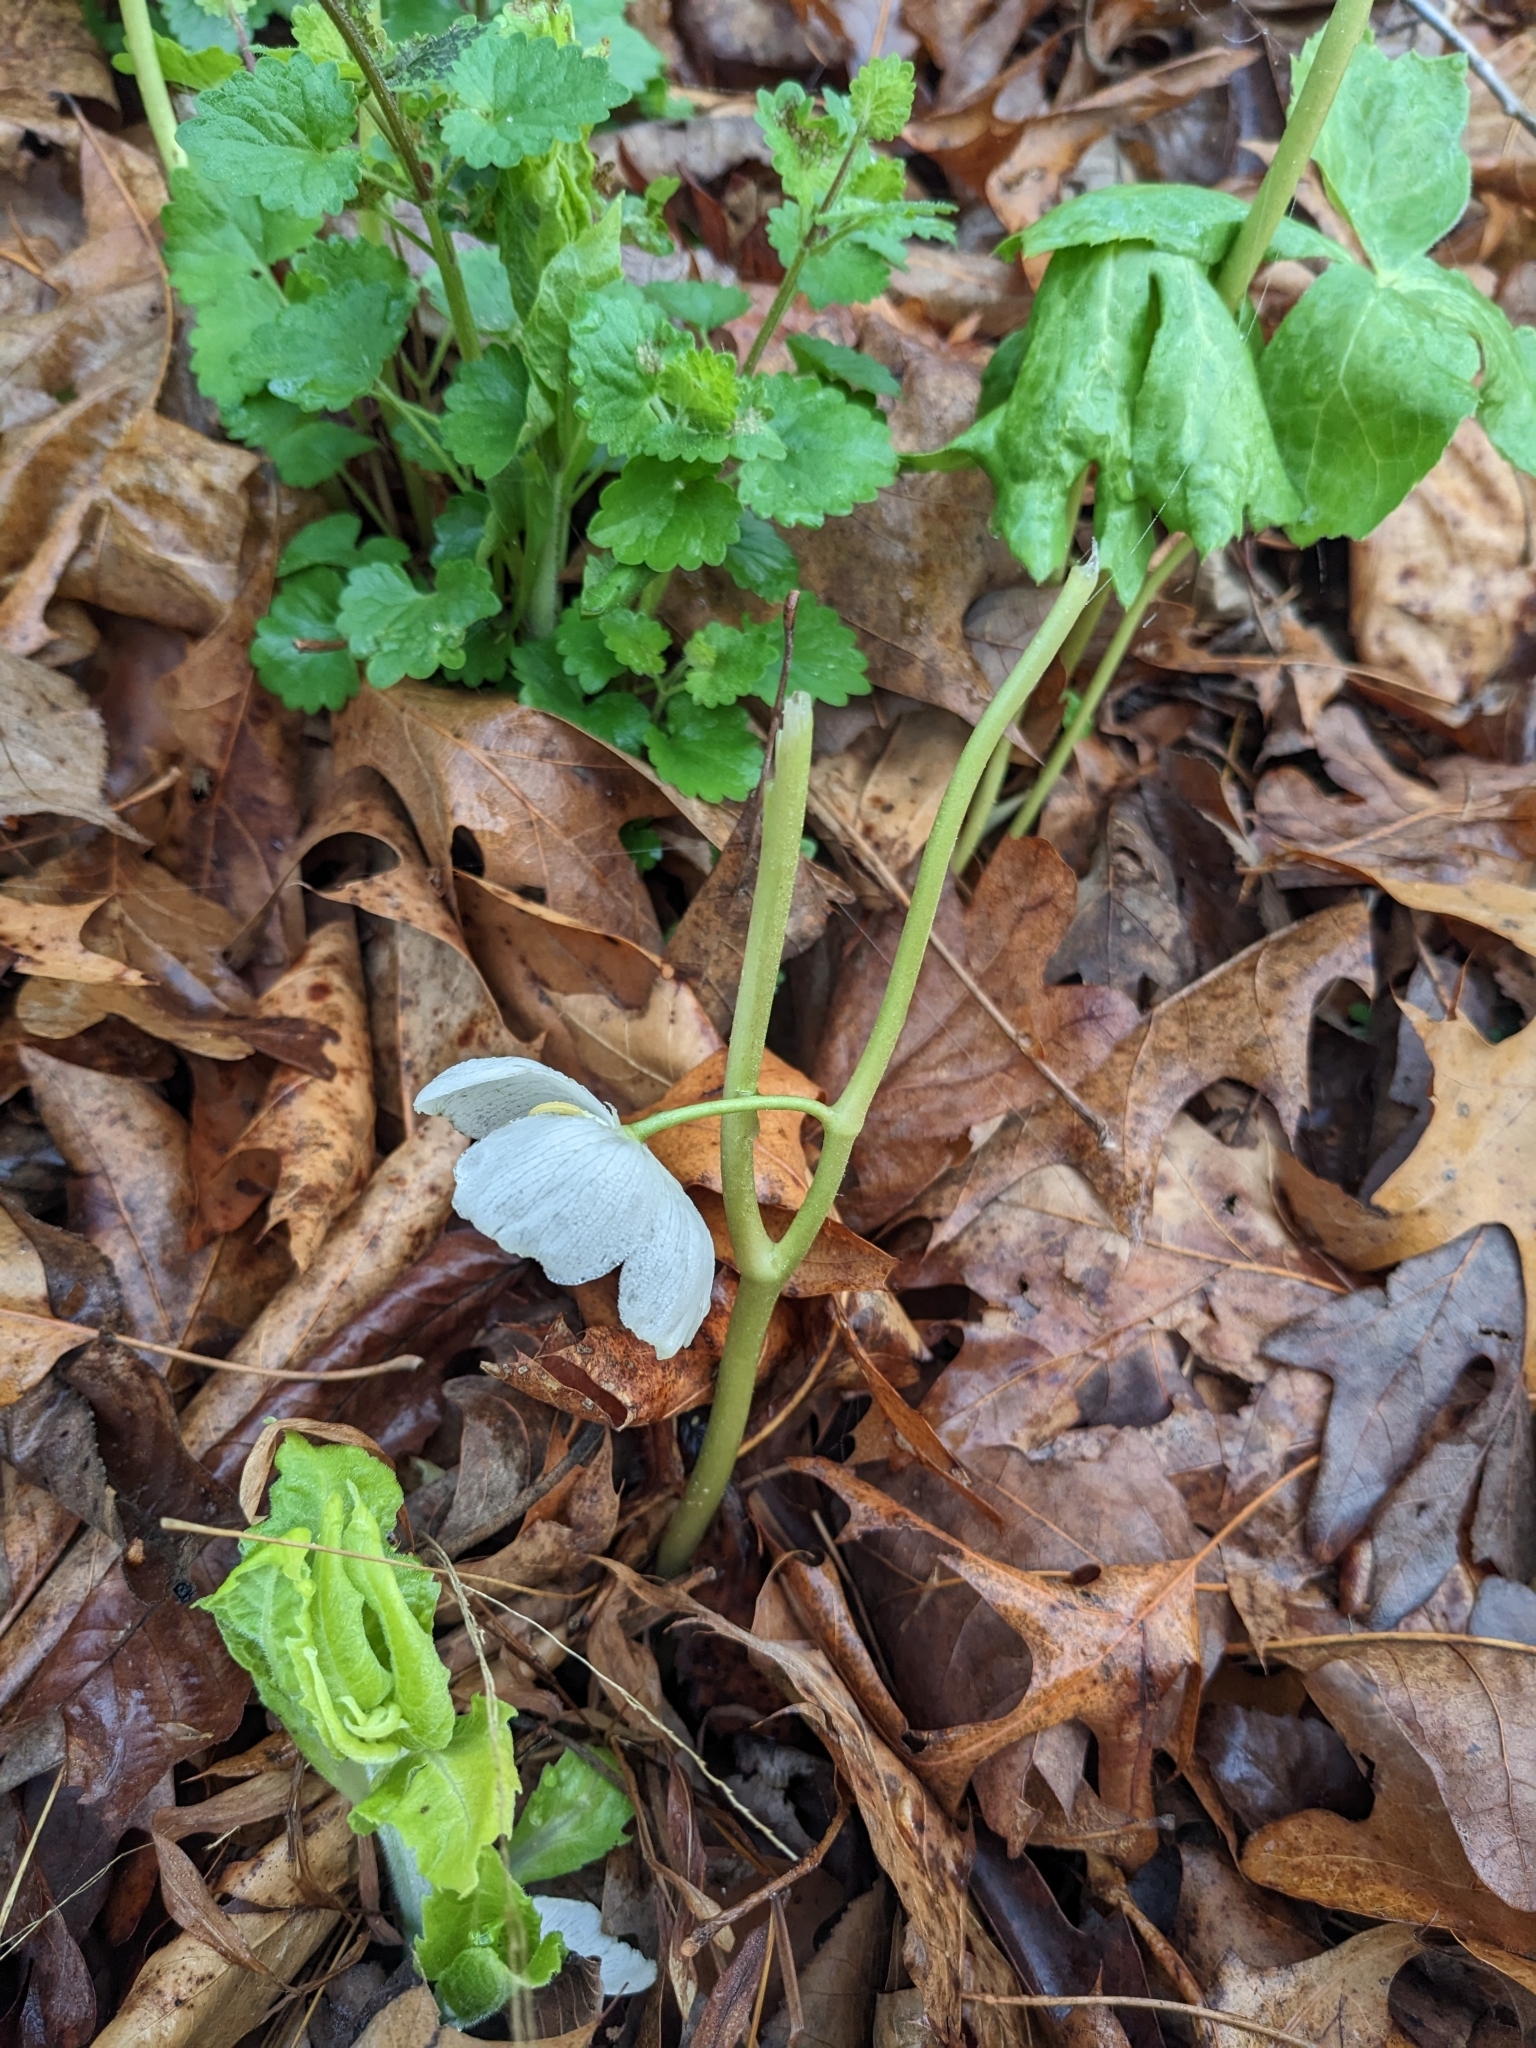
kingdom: Plantae
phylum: Tracheophyta
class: Magnoliopsida
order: Ranunculales
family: Berberidaceae
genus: Podophyllum
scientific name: Podophyllum peltatum
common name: Wild mandrake
